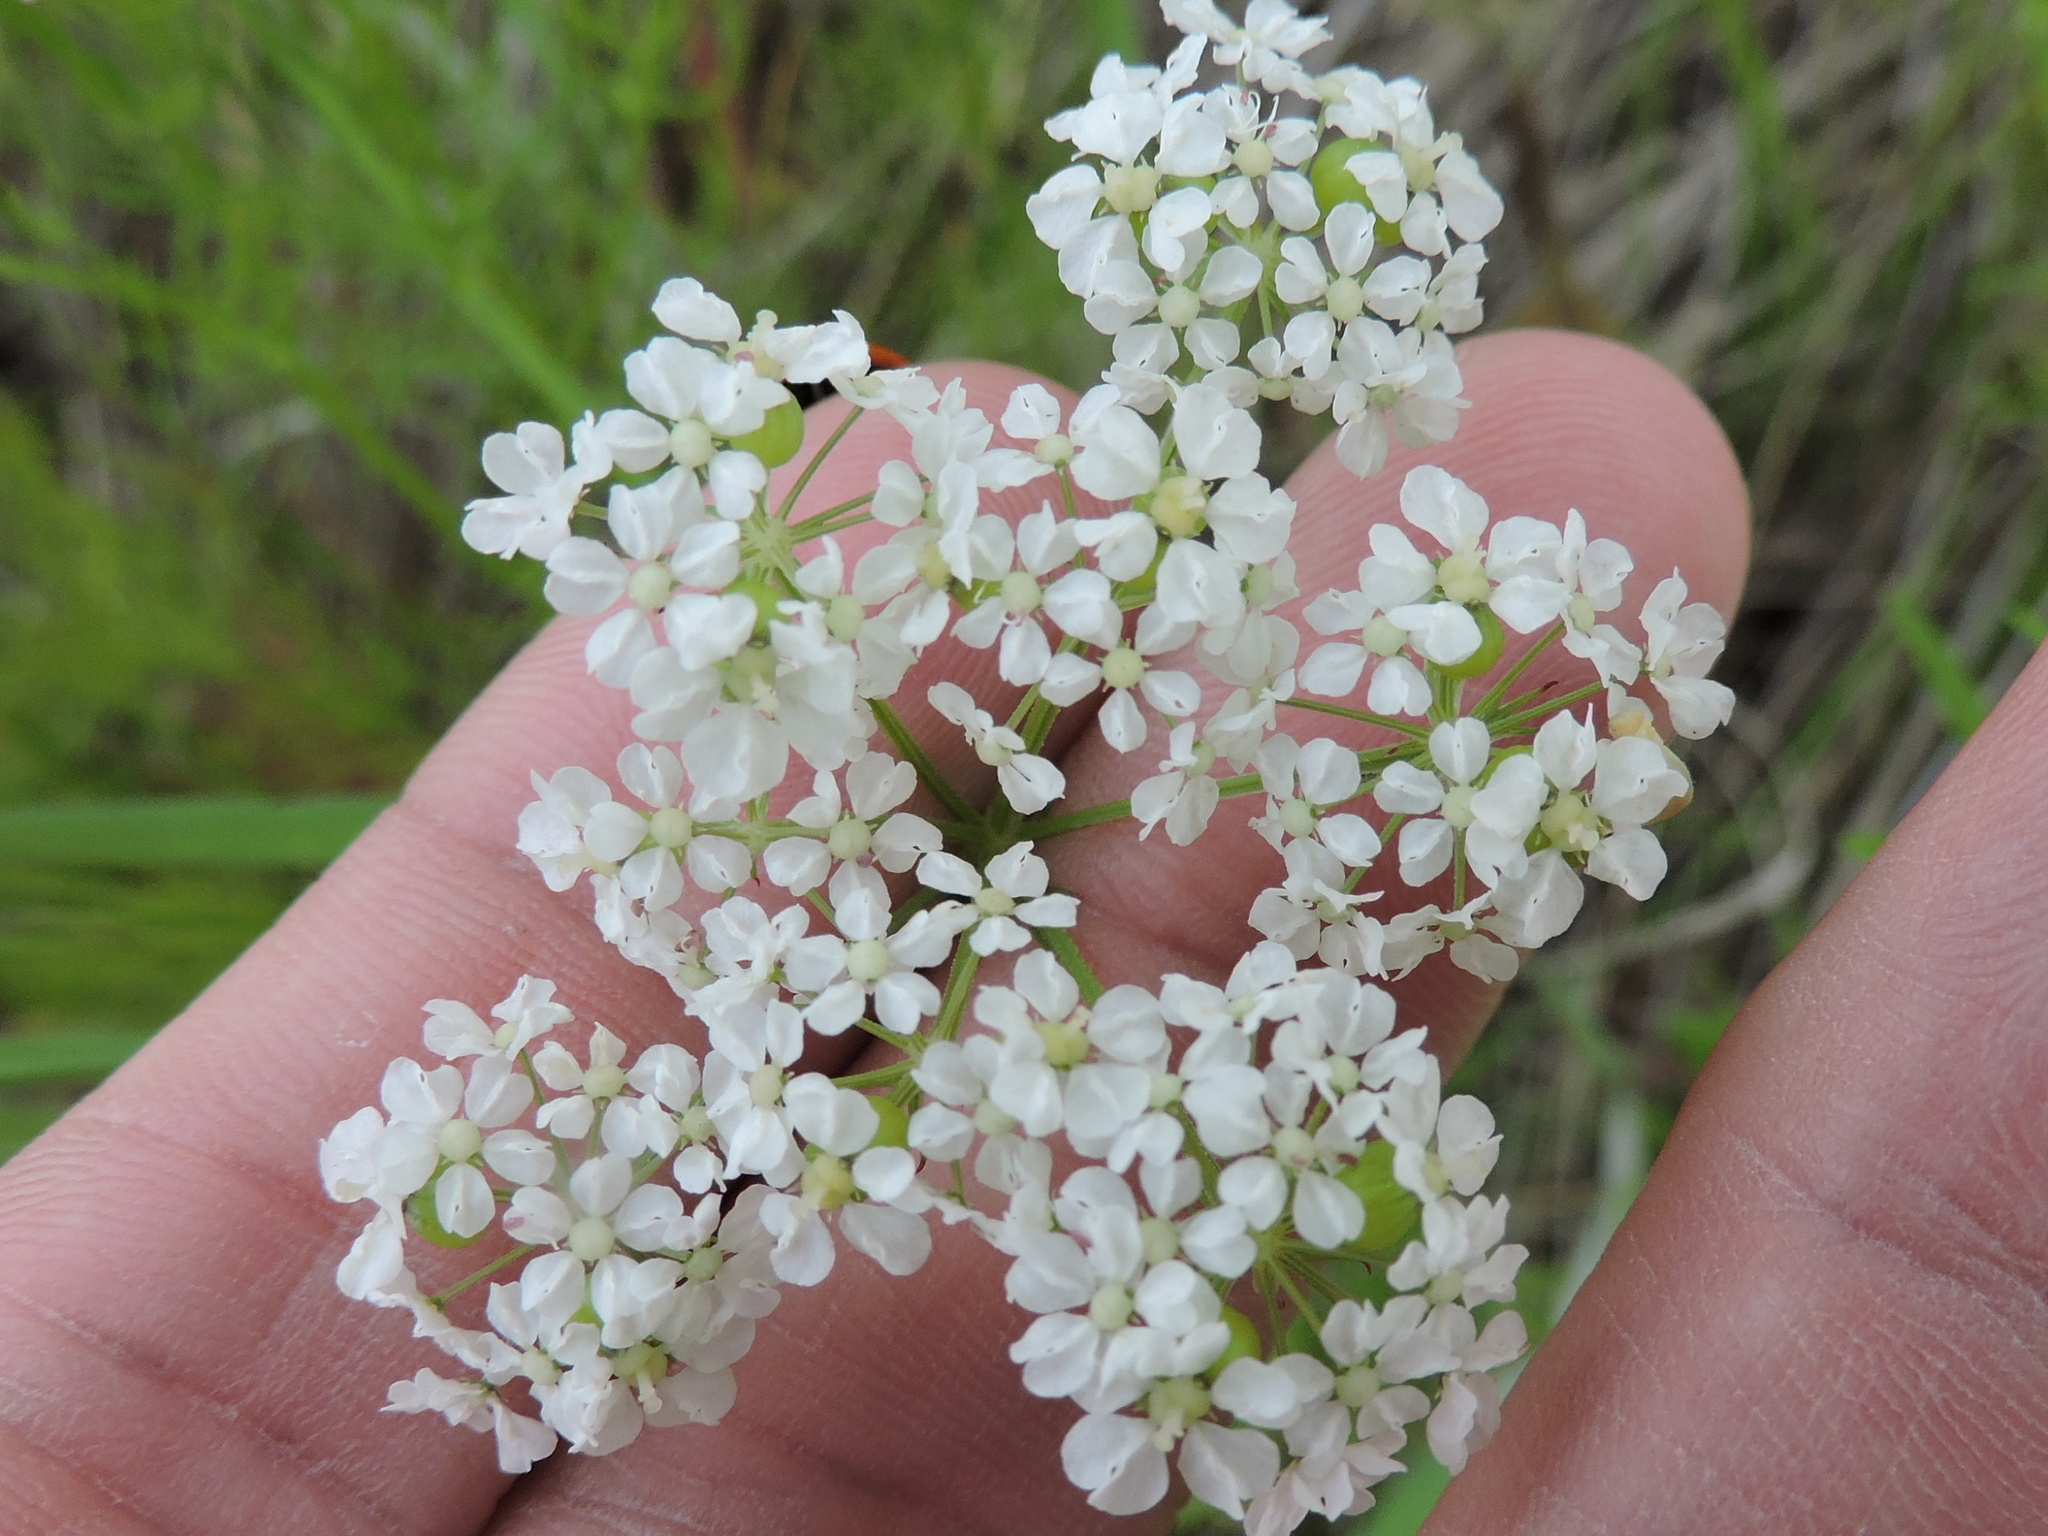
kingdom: Plantae
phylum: Tracheophyta
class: Magnoliopsida
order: Apiales
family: Apiaceae
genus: Atrema
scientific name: Atrema americanum
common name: Prairie-bishop
